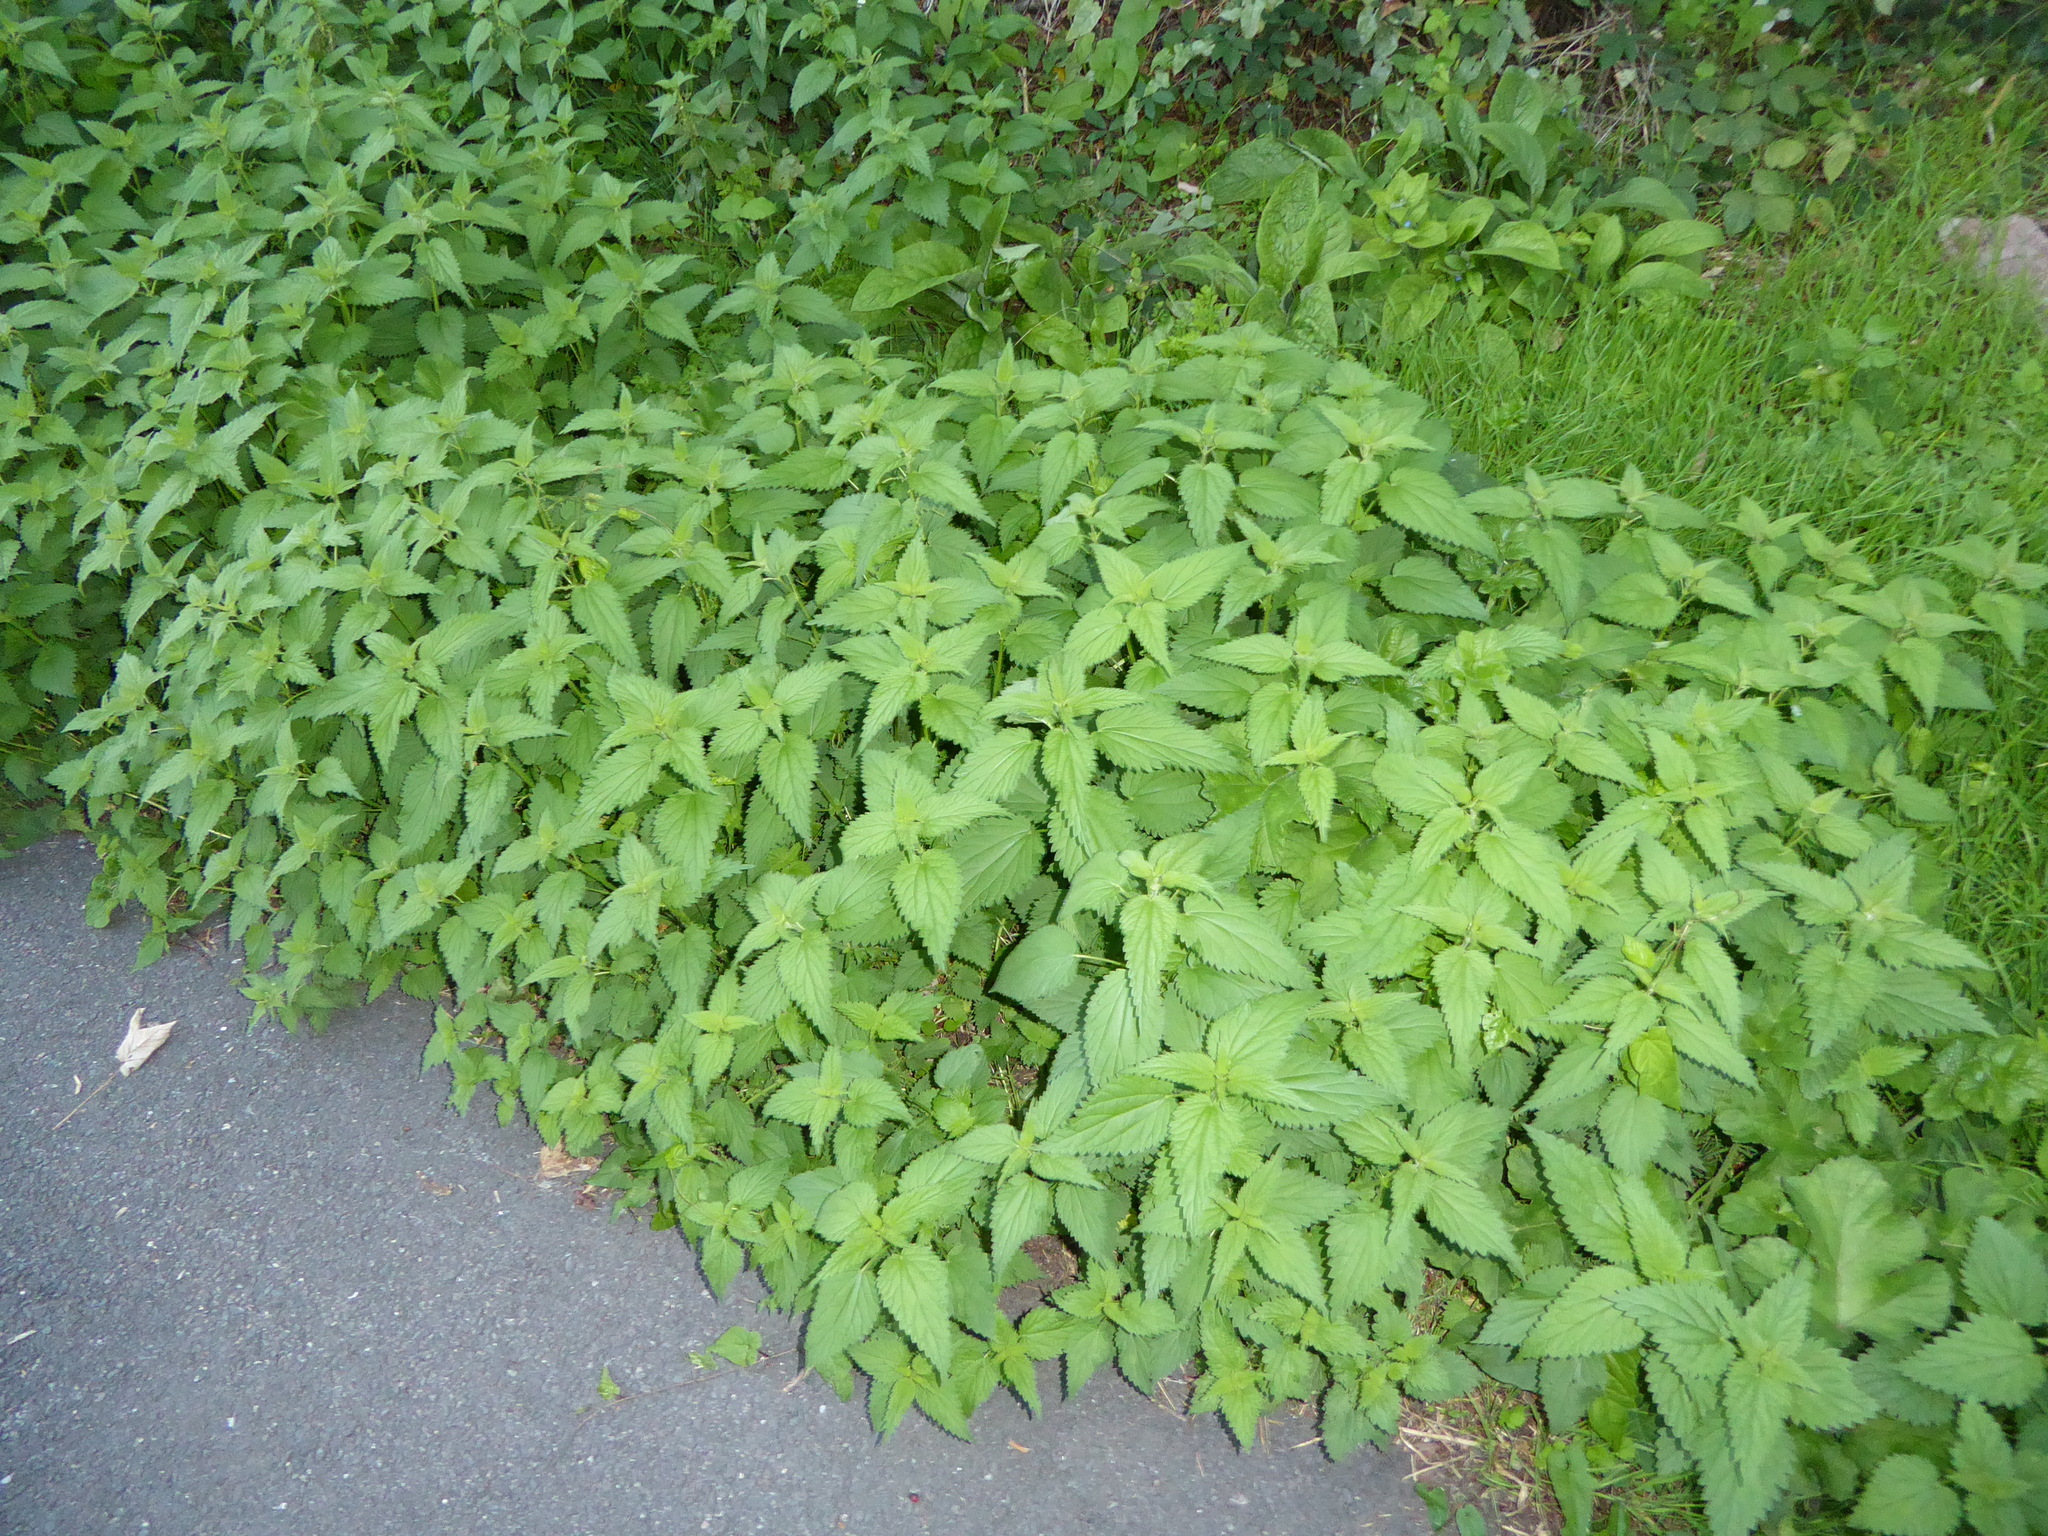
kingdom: Plantae
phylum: Tracheophyta
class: Magnoliopsida
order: Rosales
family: Urticaceae
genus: Urtica
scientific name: Urtica dioica
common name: Common nettle
